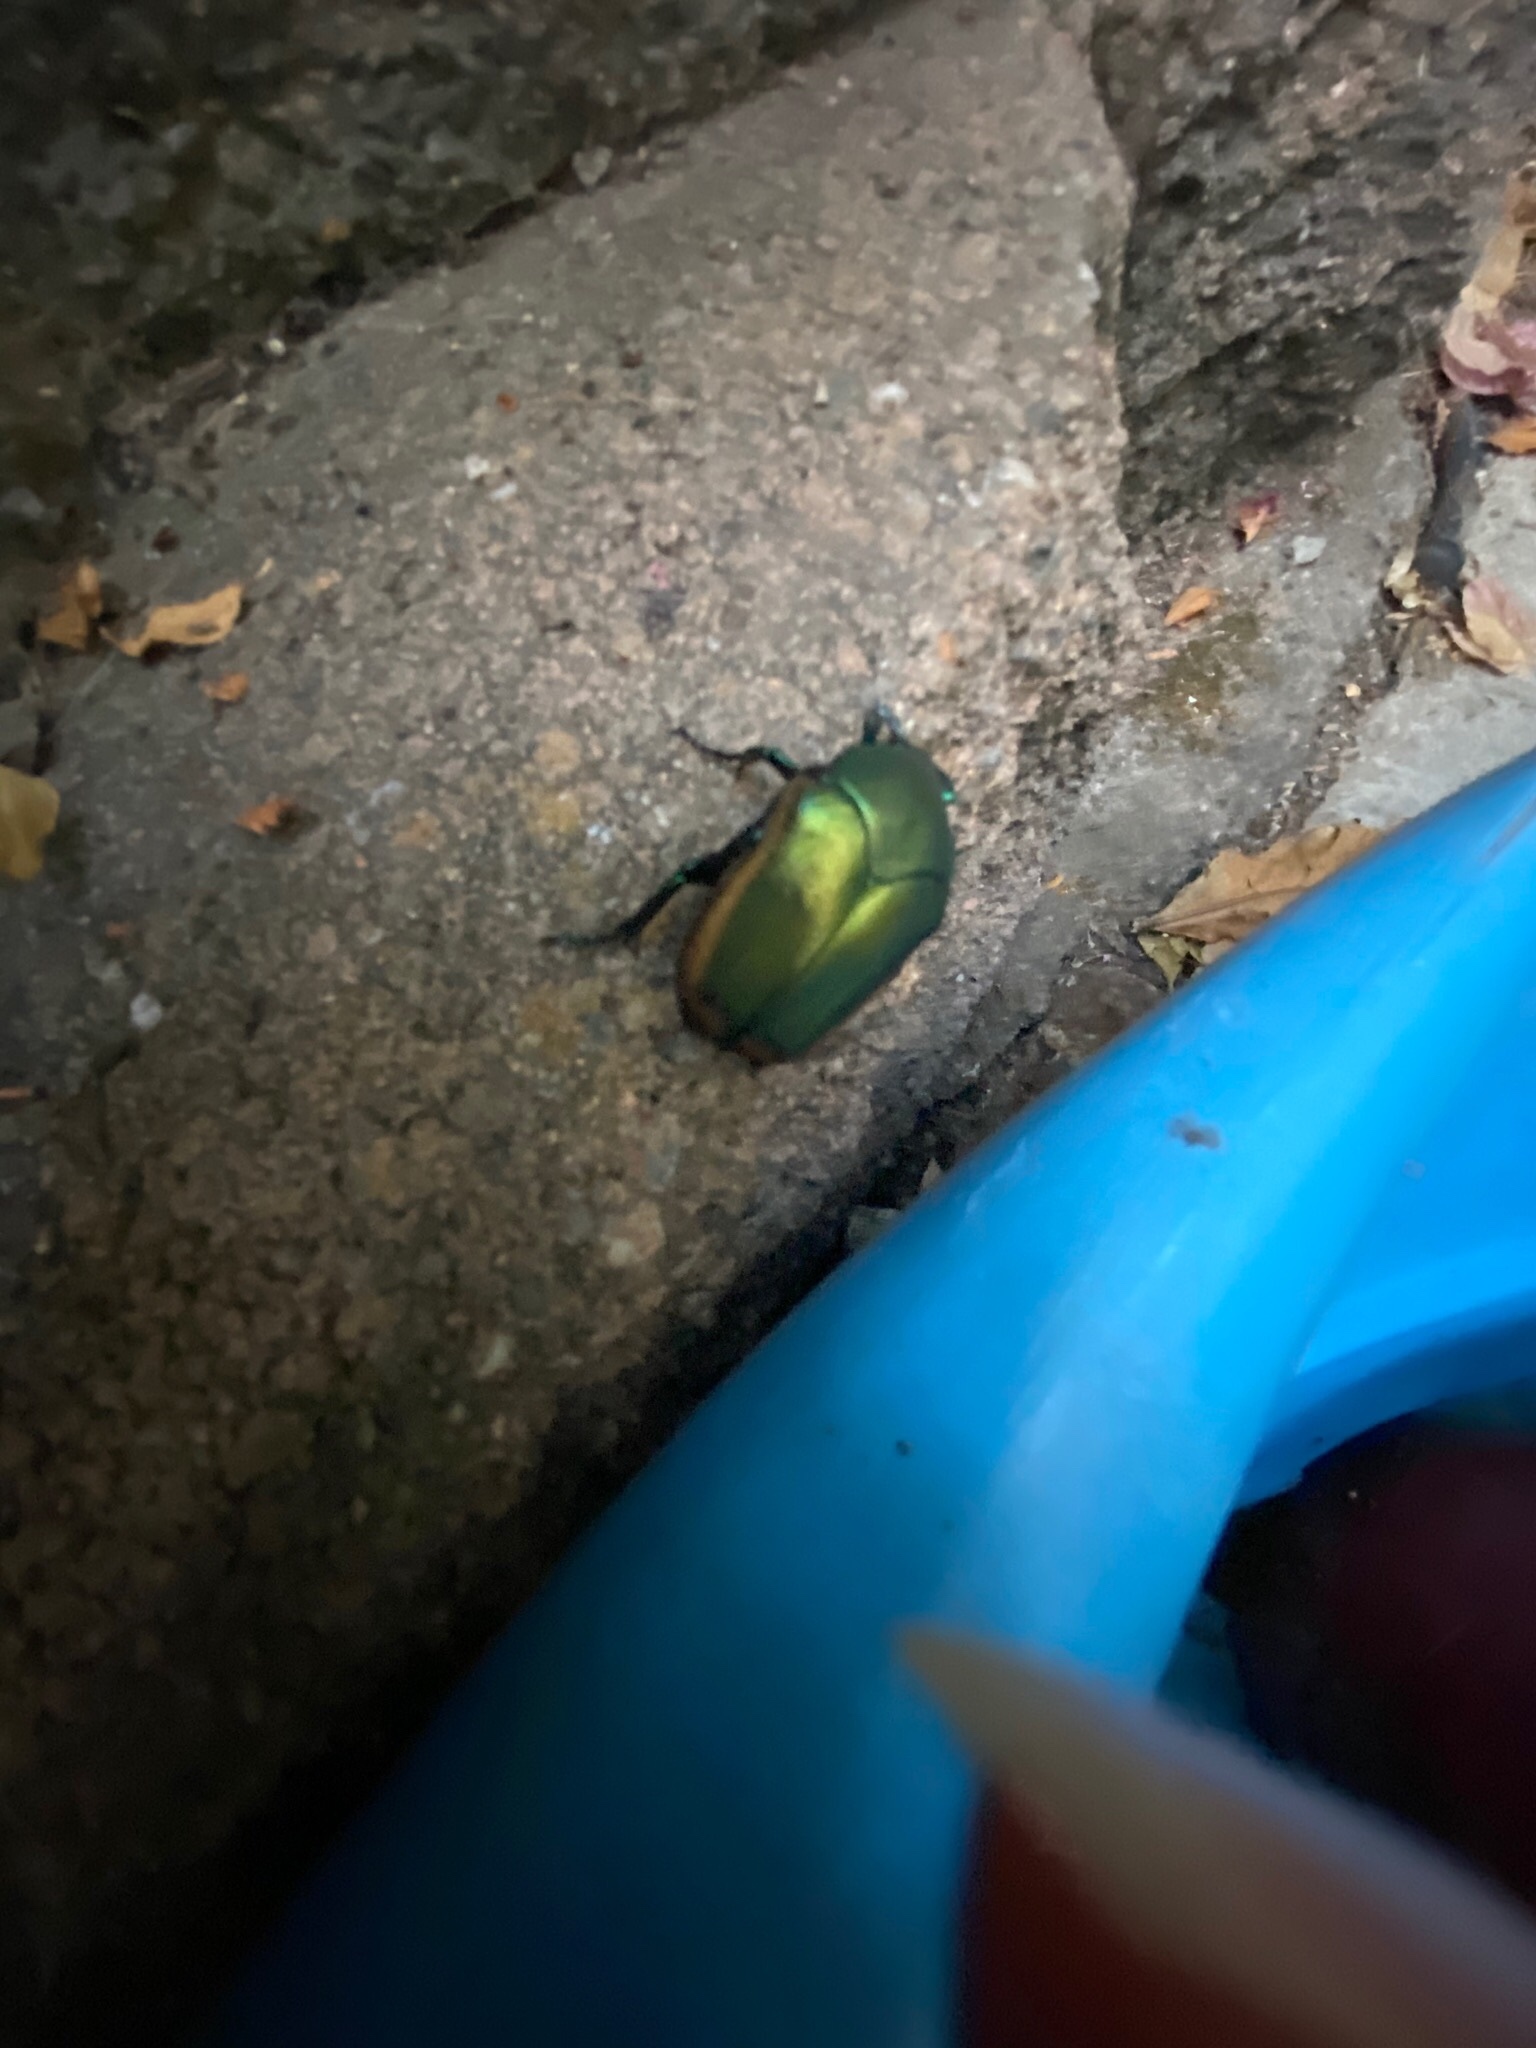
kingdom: Animalia
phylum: Arthropoda
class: Insecta
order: Coleoptera
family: Scarabaeidae
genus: Cotinis
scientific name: Cotinis mutabilis
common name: Figeater beetle
